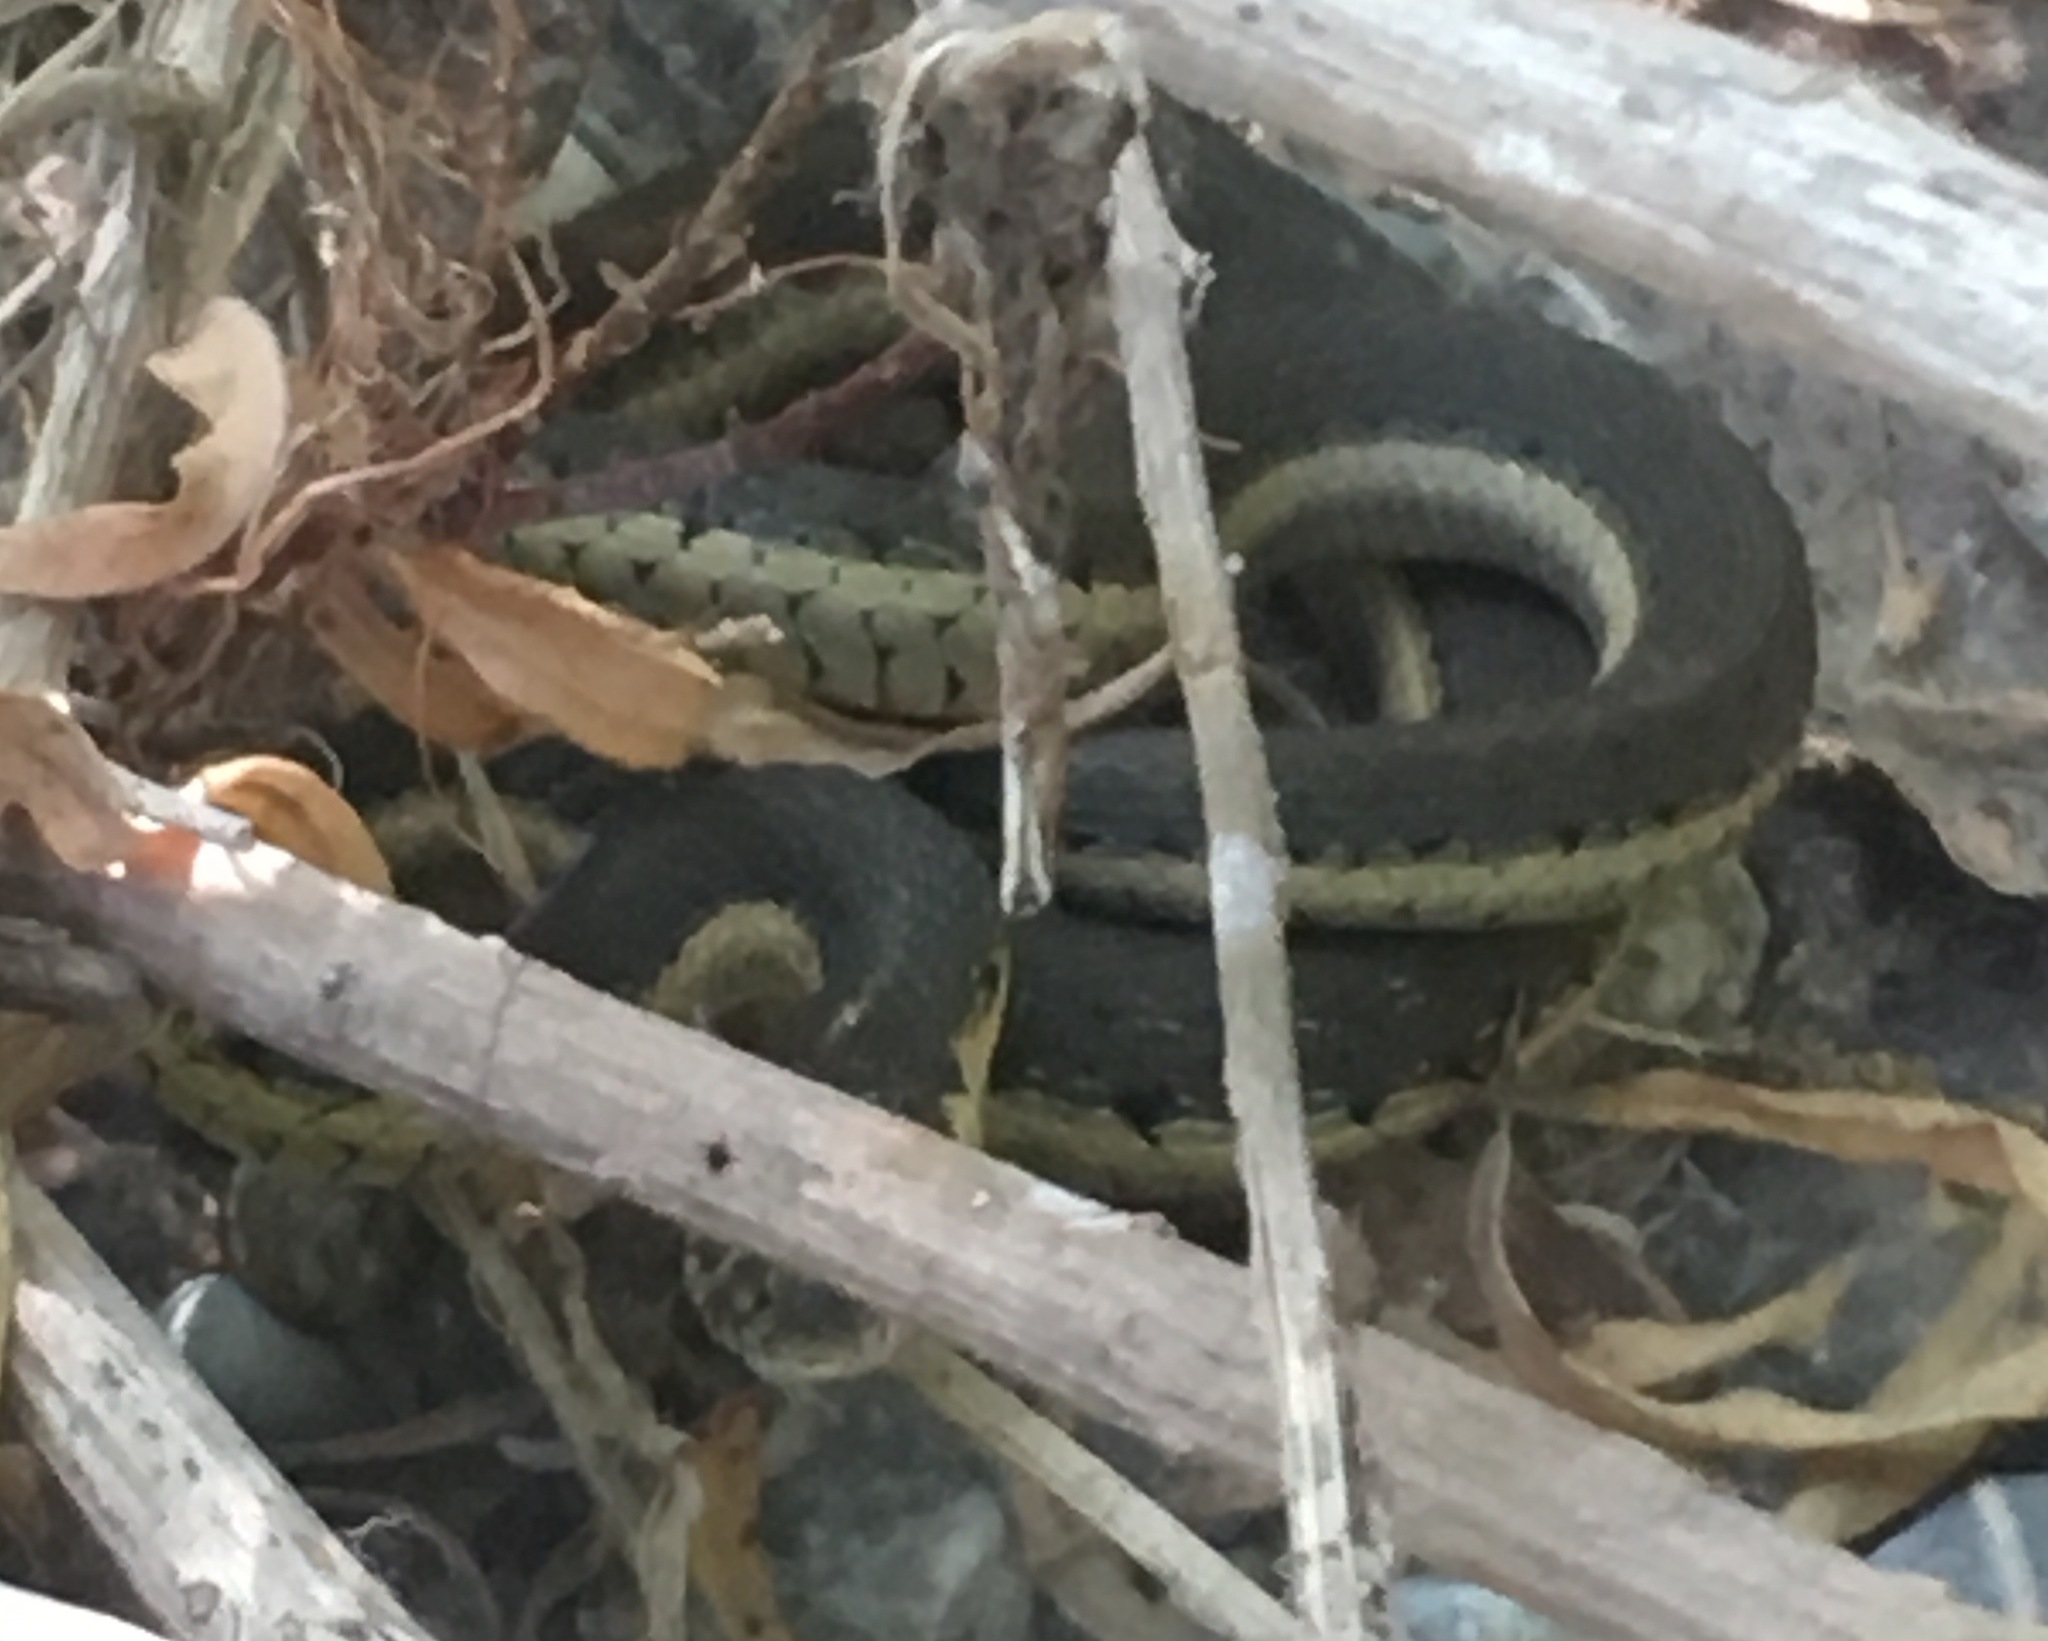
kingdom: Animalia
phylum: Chordata
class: Squamata
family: Colubridae
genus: Thamnophis
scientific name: Thamnophis hammondii
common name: Two-striped garter snake
